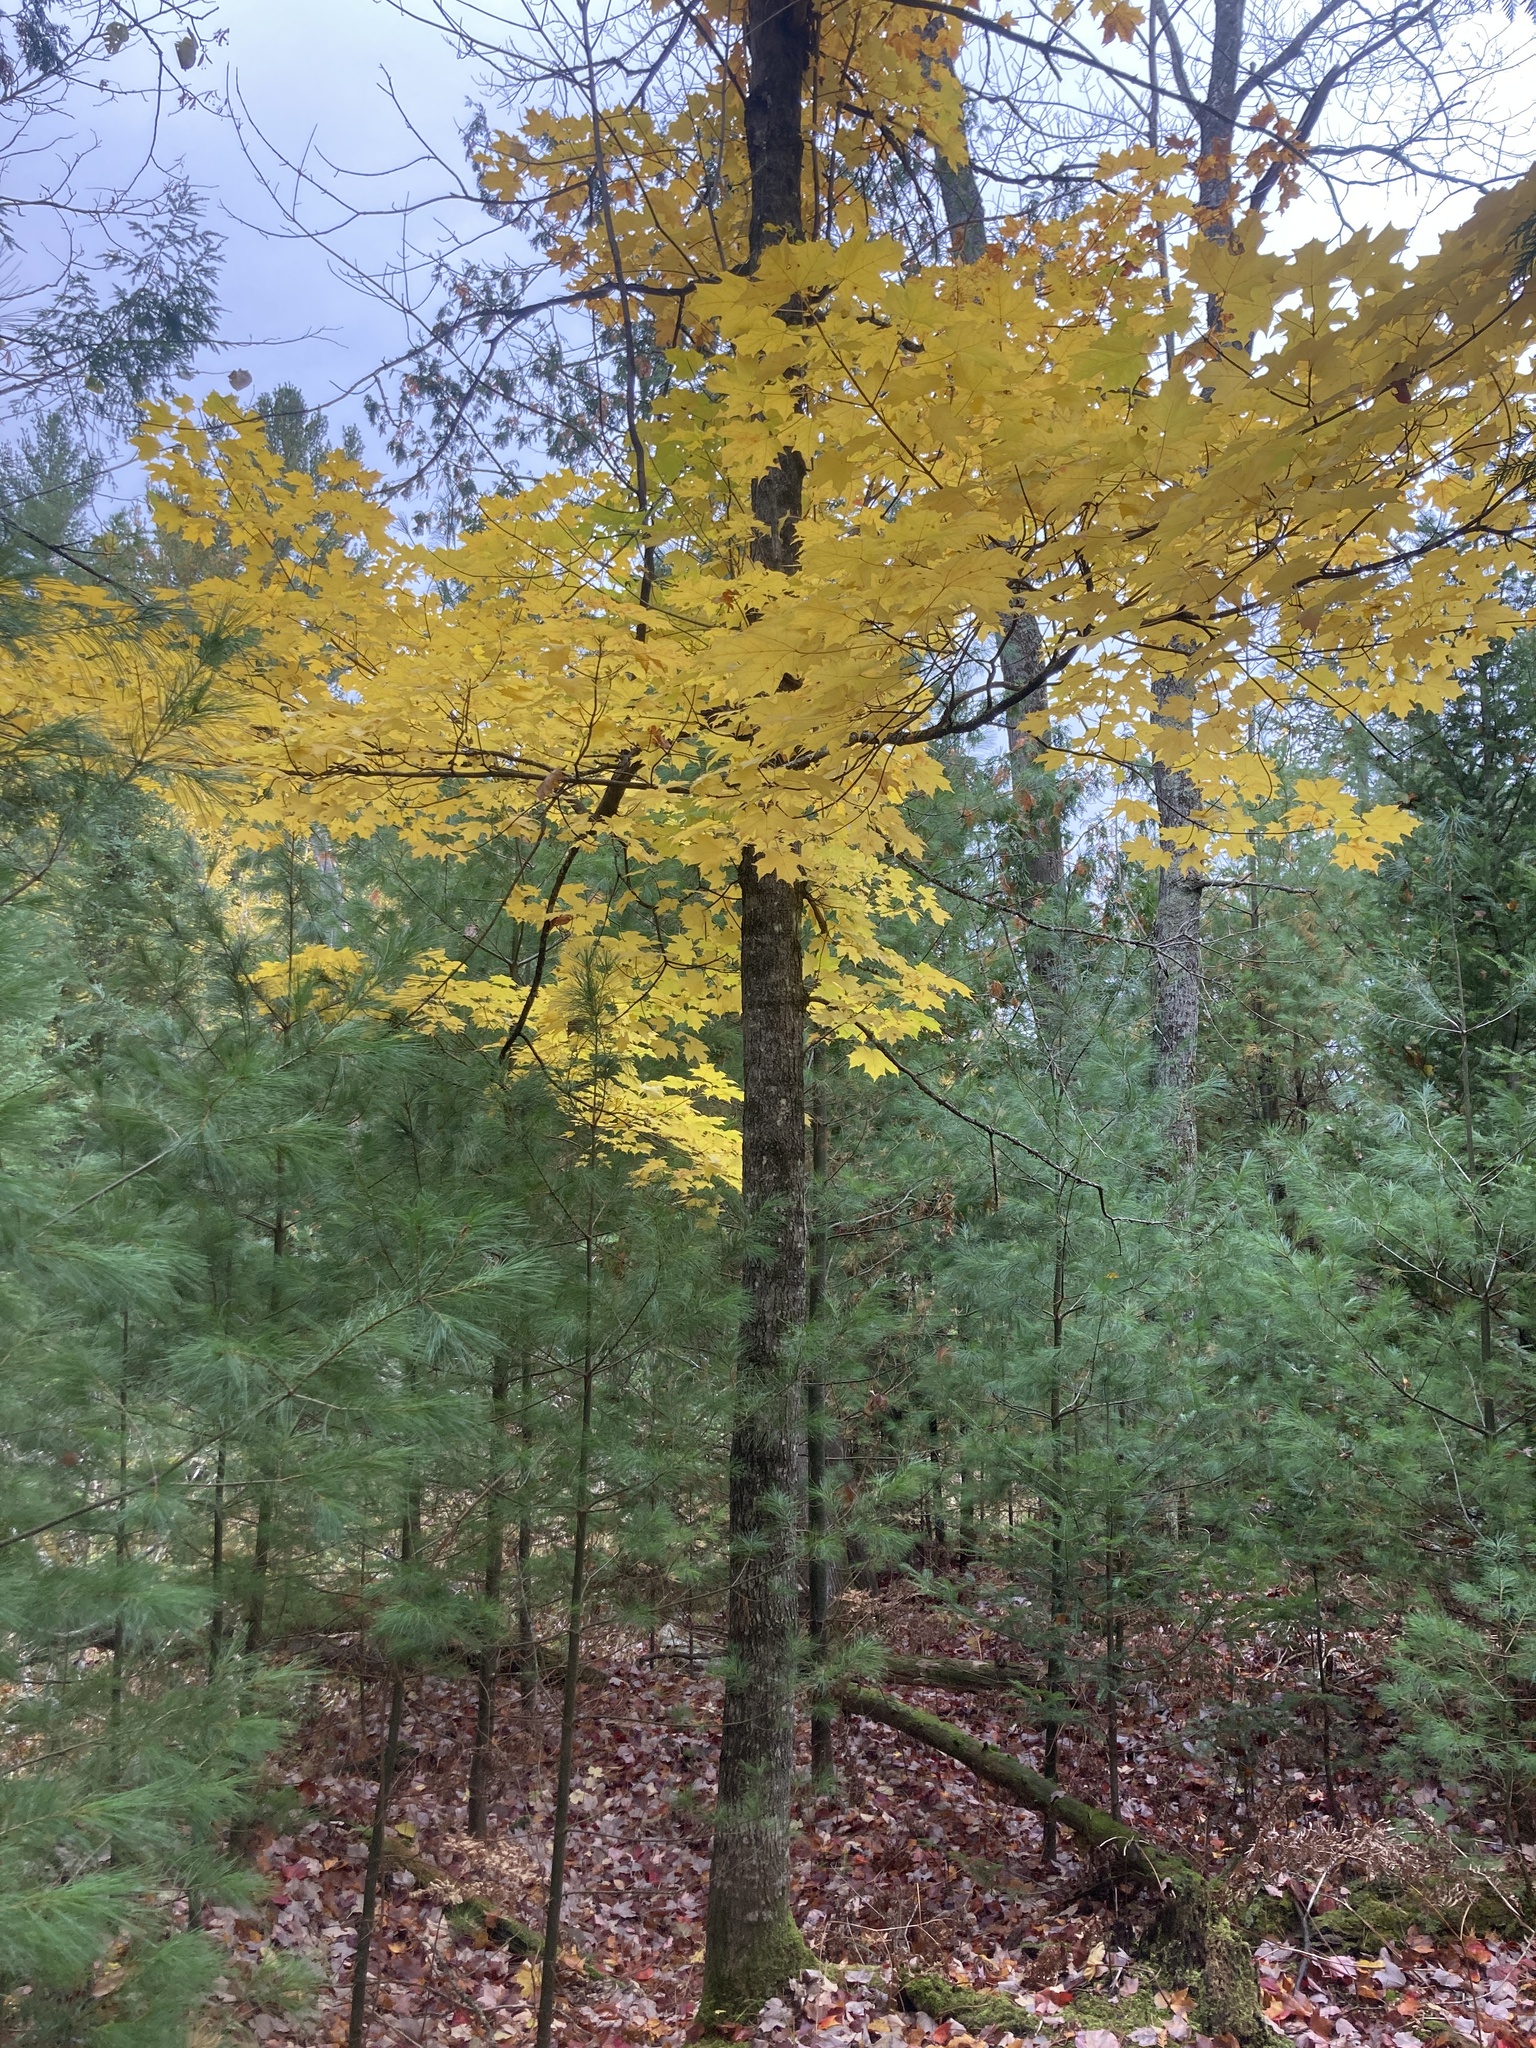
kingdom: Plantae
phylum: Tracheophyta
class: Magnoliopsida
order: Sapindales
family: Sapindaceae
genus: Acer
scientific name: Acer saccharum
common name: Sugar maple
